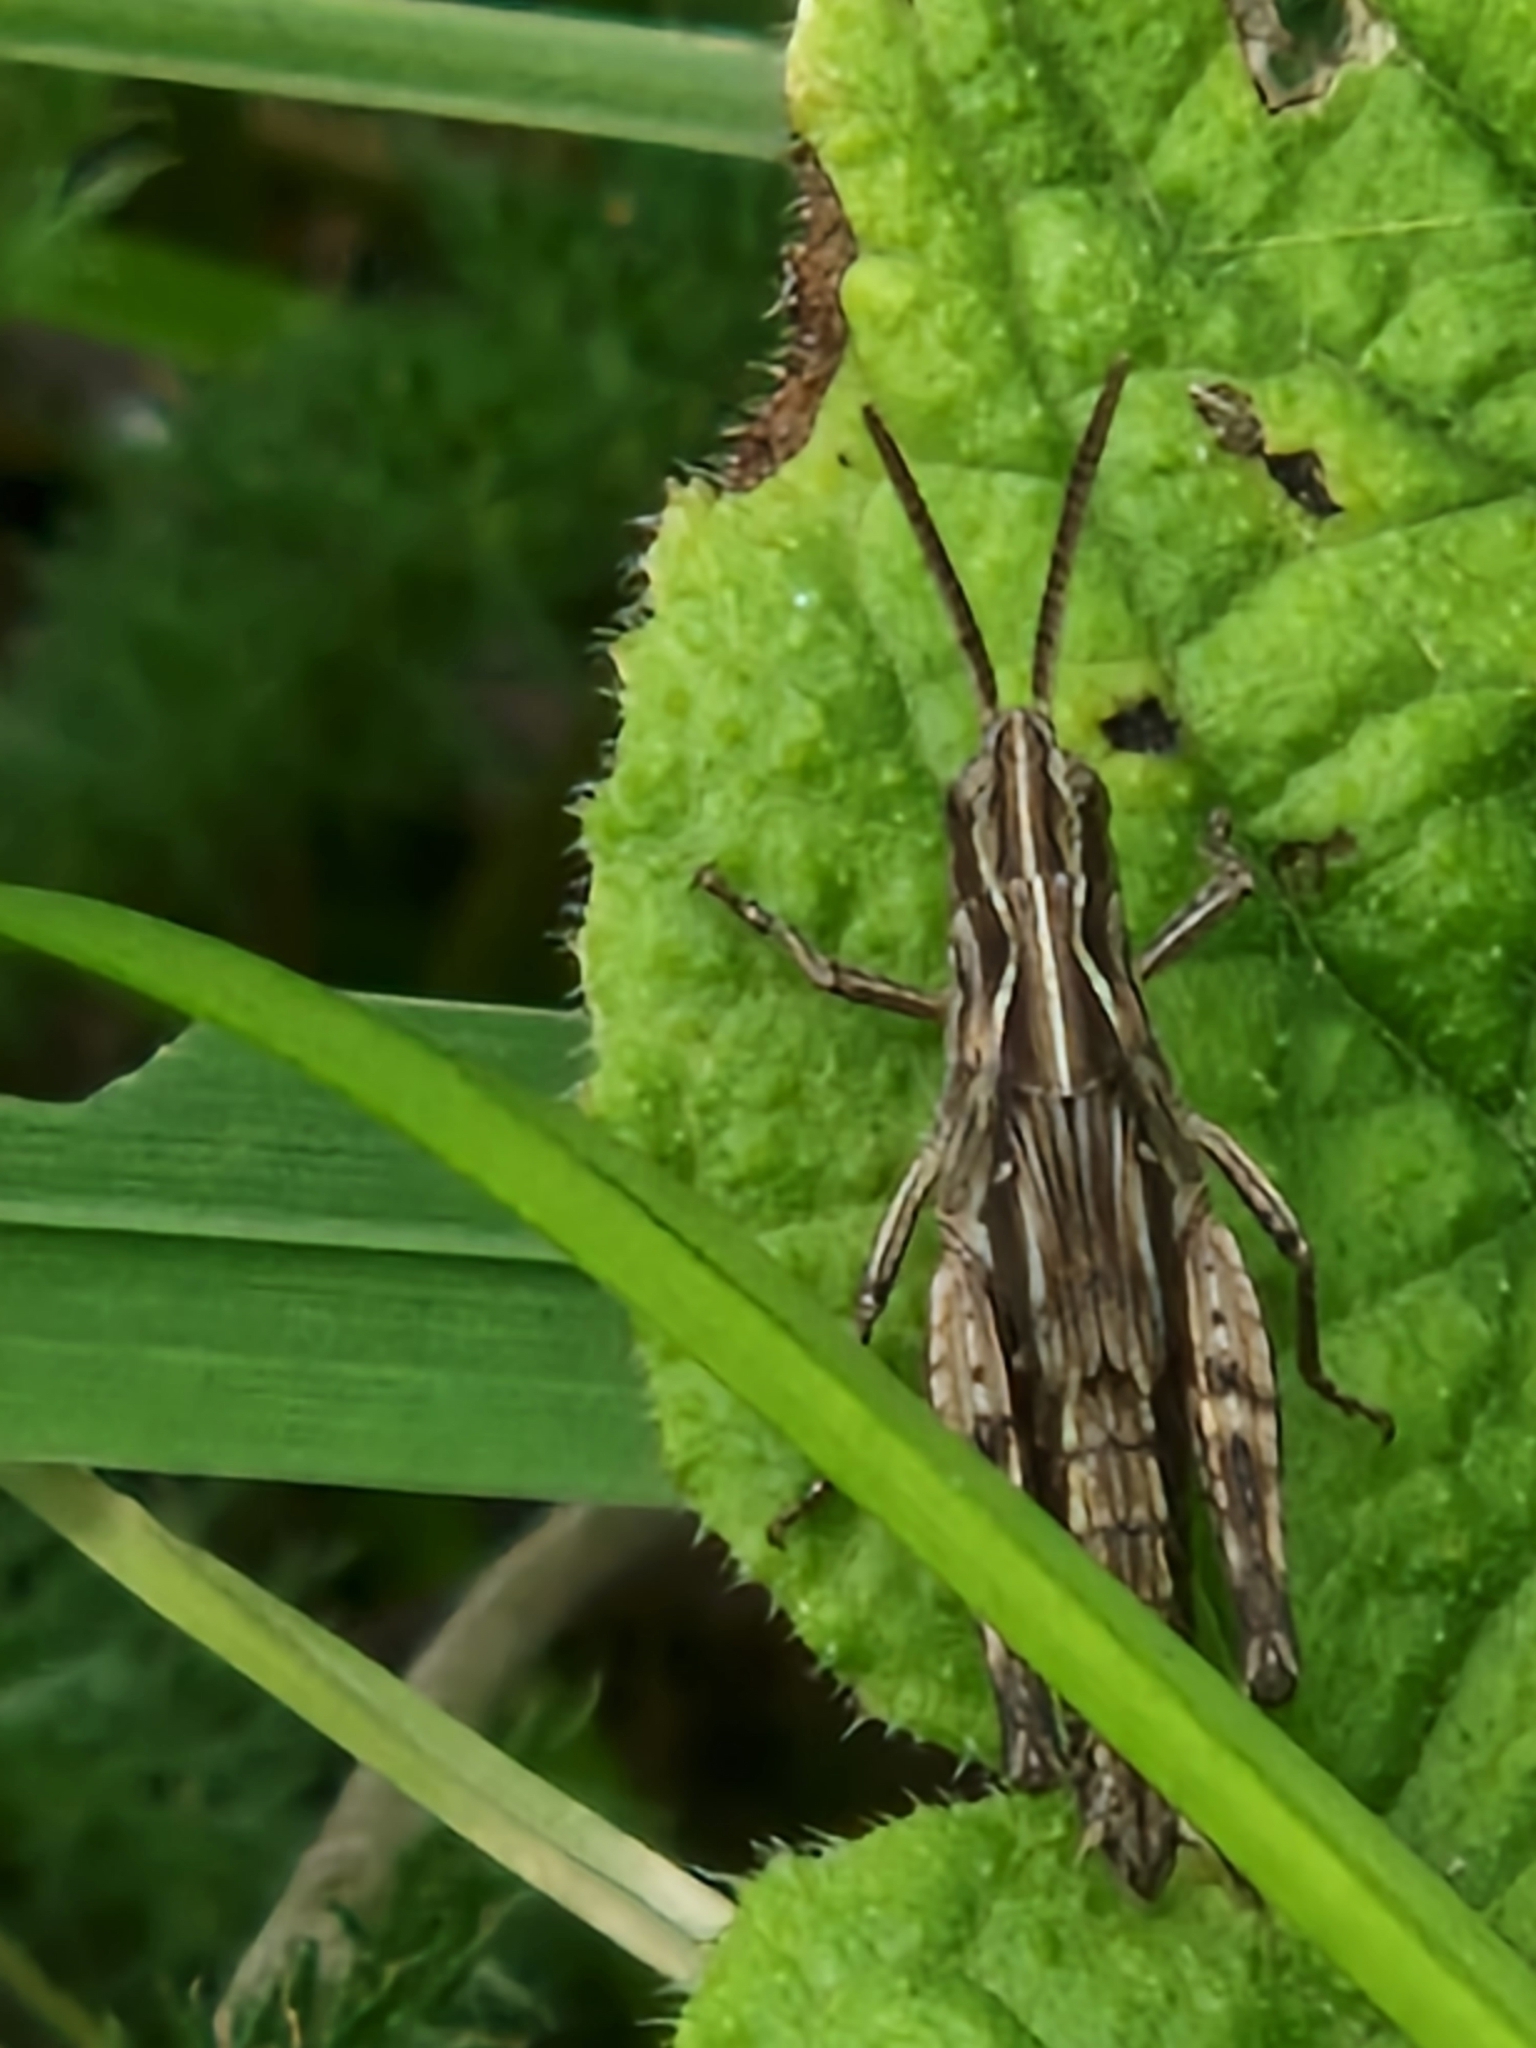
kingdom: Animalia
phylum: Arthropoda
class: Insecta
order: Orthoptera
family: Acrididae
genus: Chorthippus
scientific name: Chorthippus brunneus
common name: Field grasshopper
